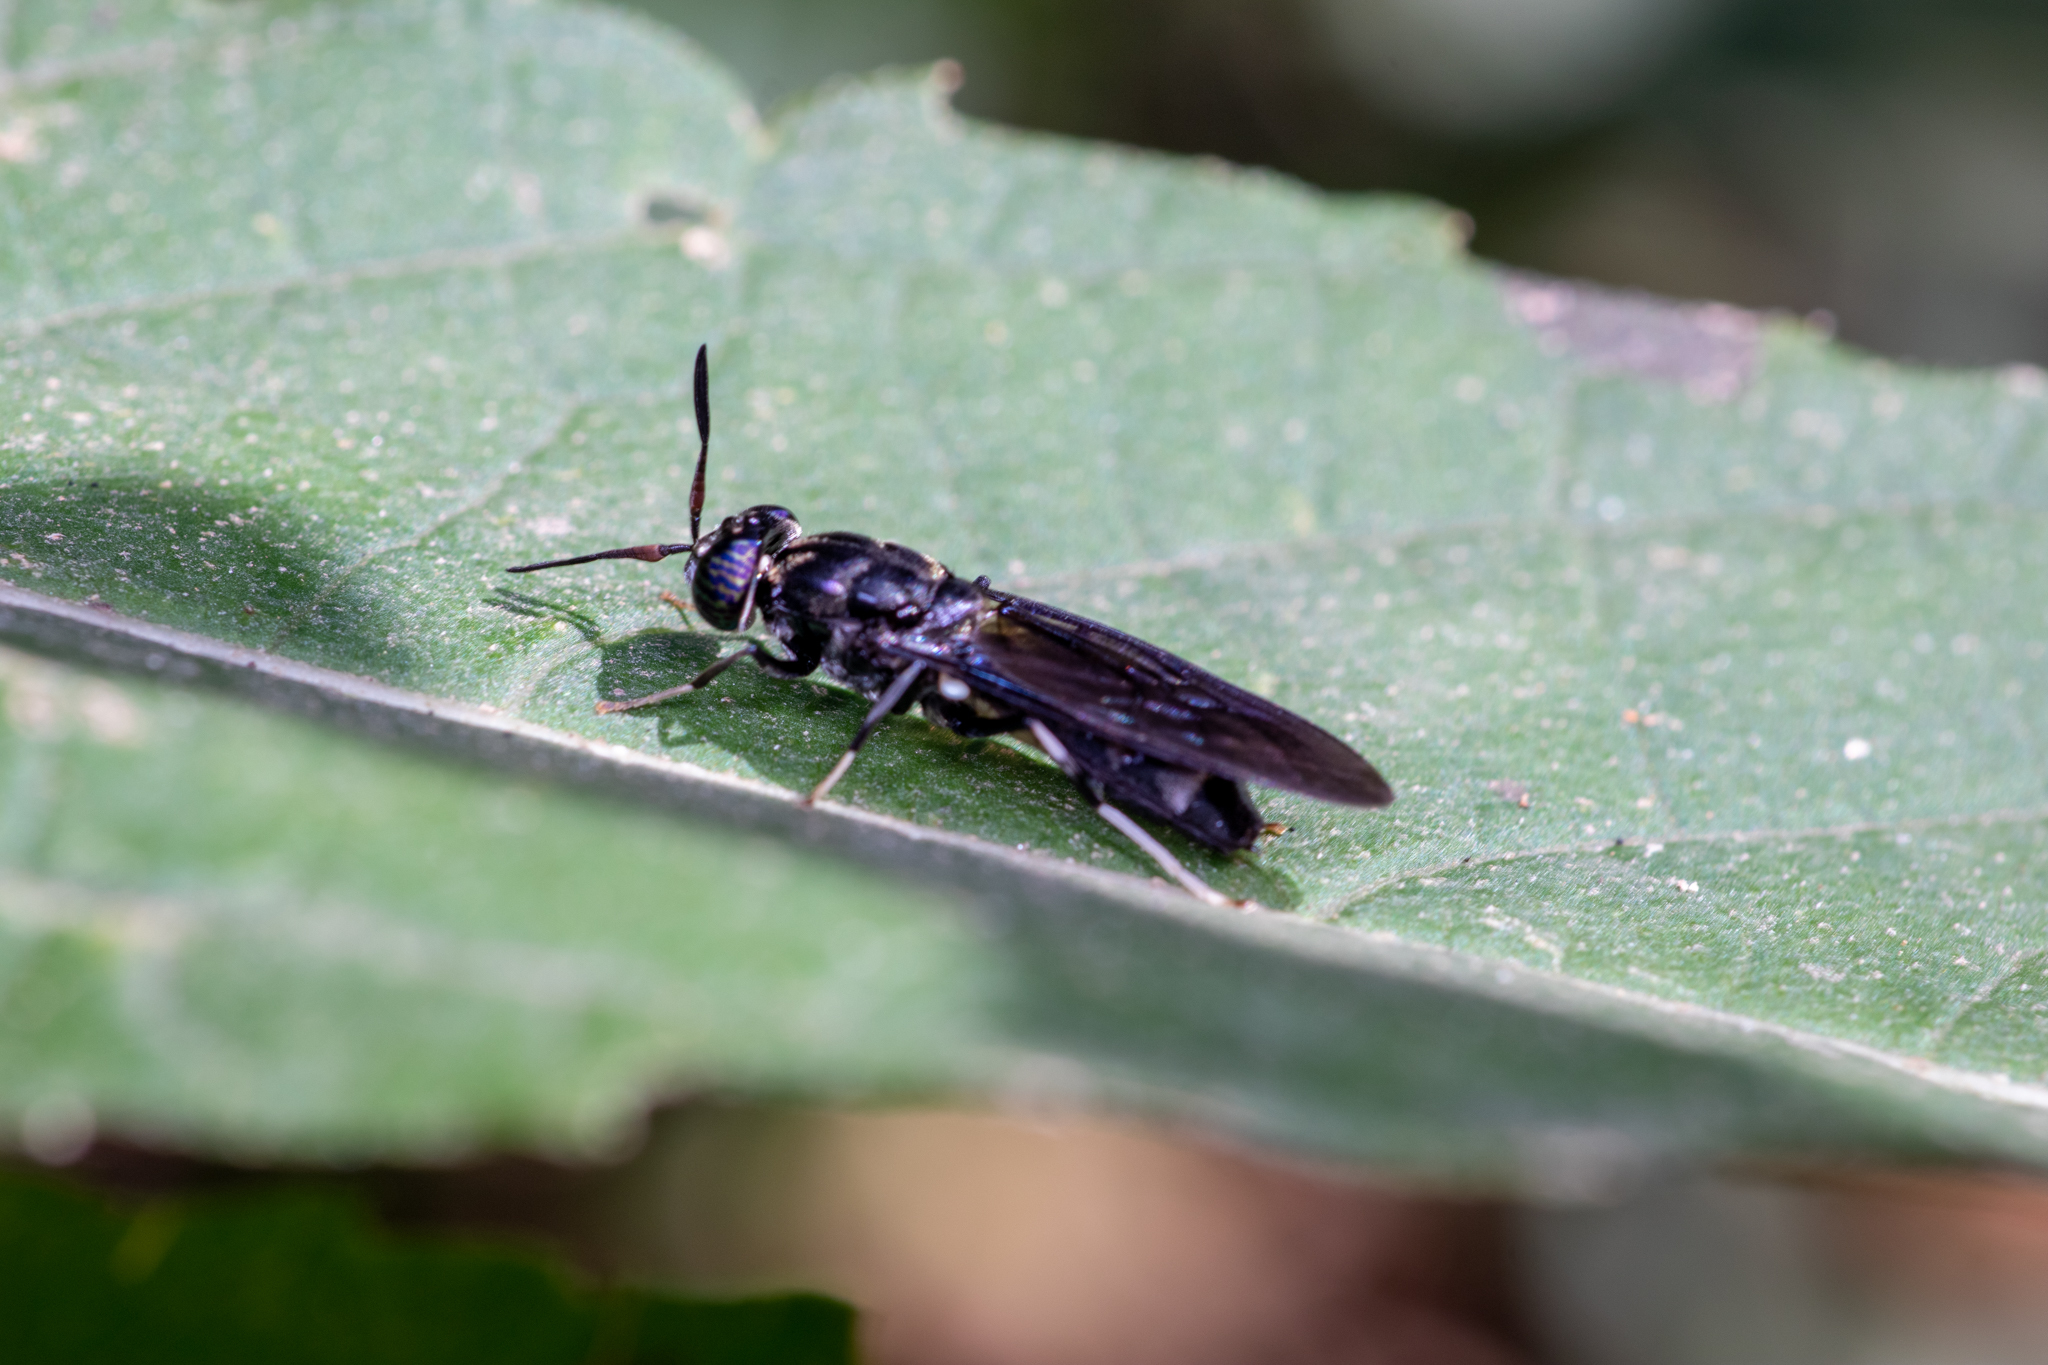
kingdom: Animalia
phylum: Arthropoda
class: Insecta
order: Diptera
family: Stratiomyidae
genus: Hermetia
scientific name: Hermetia illucens
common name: Black soldier fly
